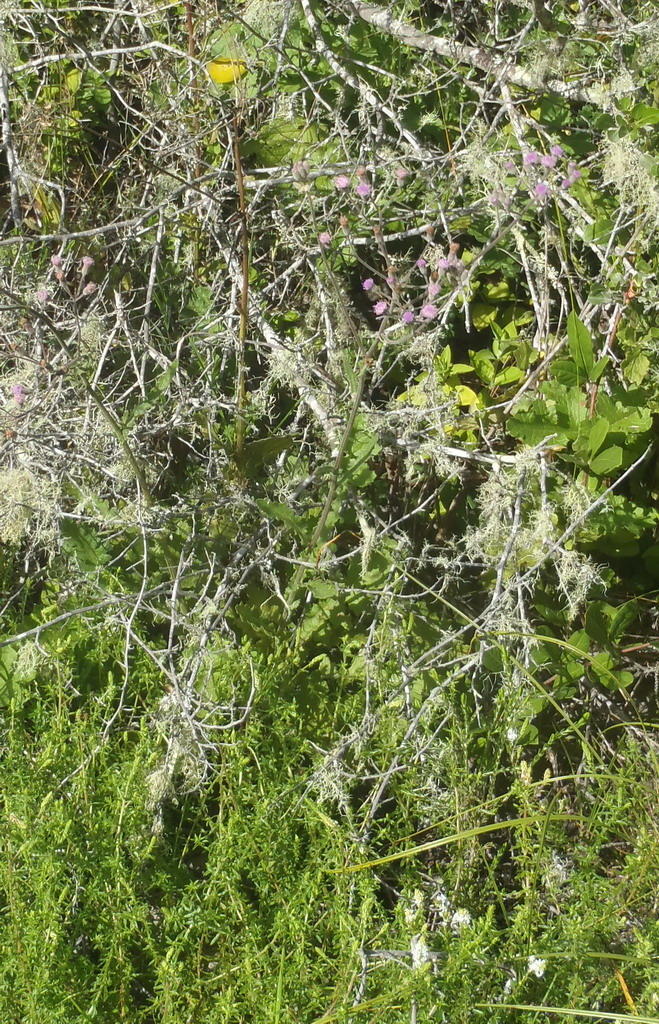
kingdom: Plantae
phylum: Tracheophyta
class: Magnoliopsida
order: Asterales
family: Asteraceae
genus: Senecio
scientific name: Senecio purpureus
